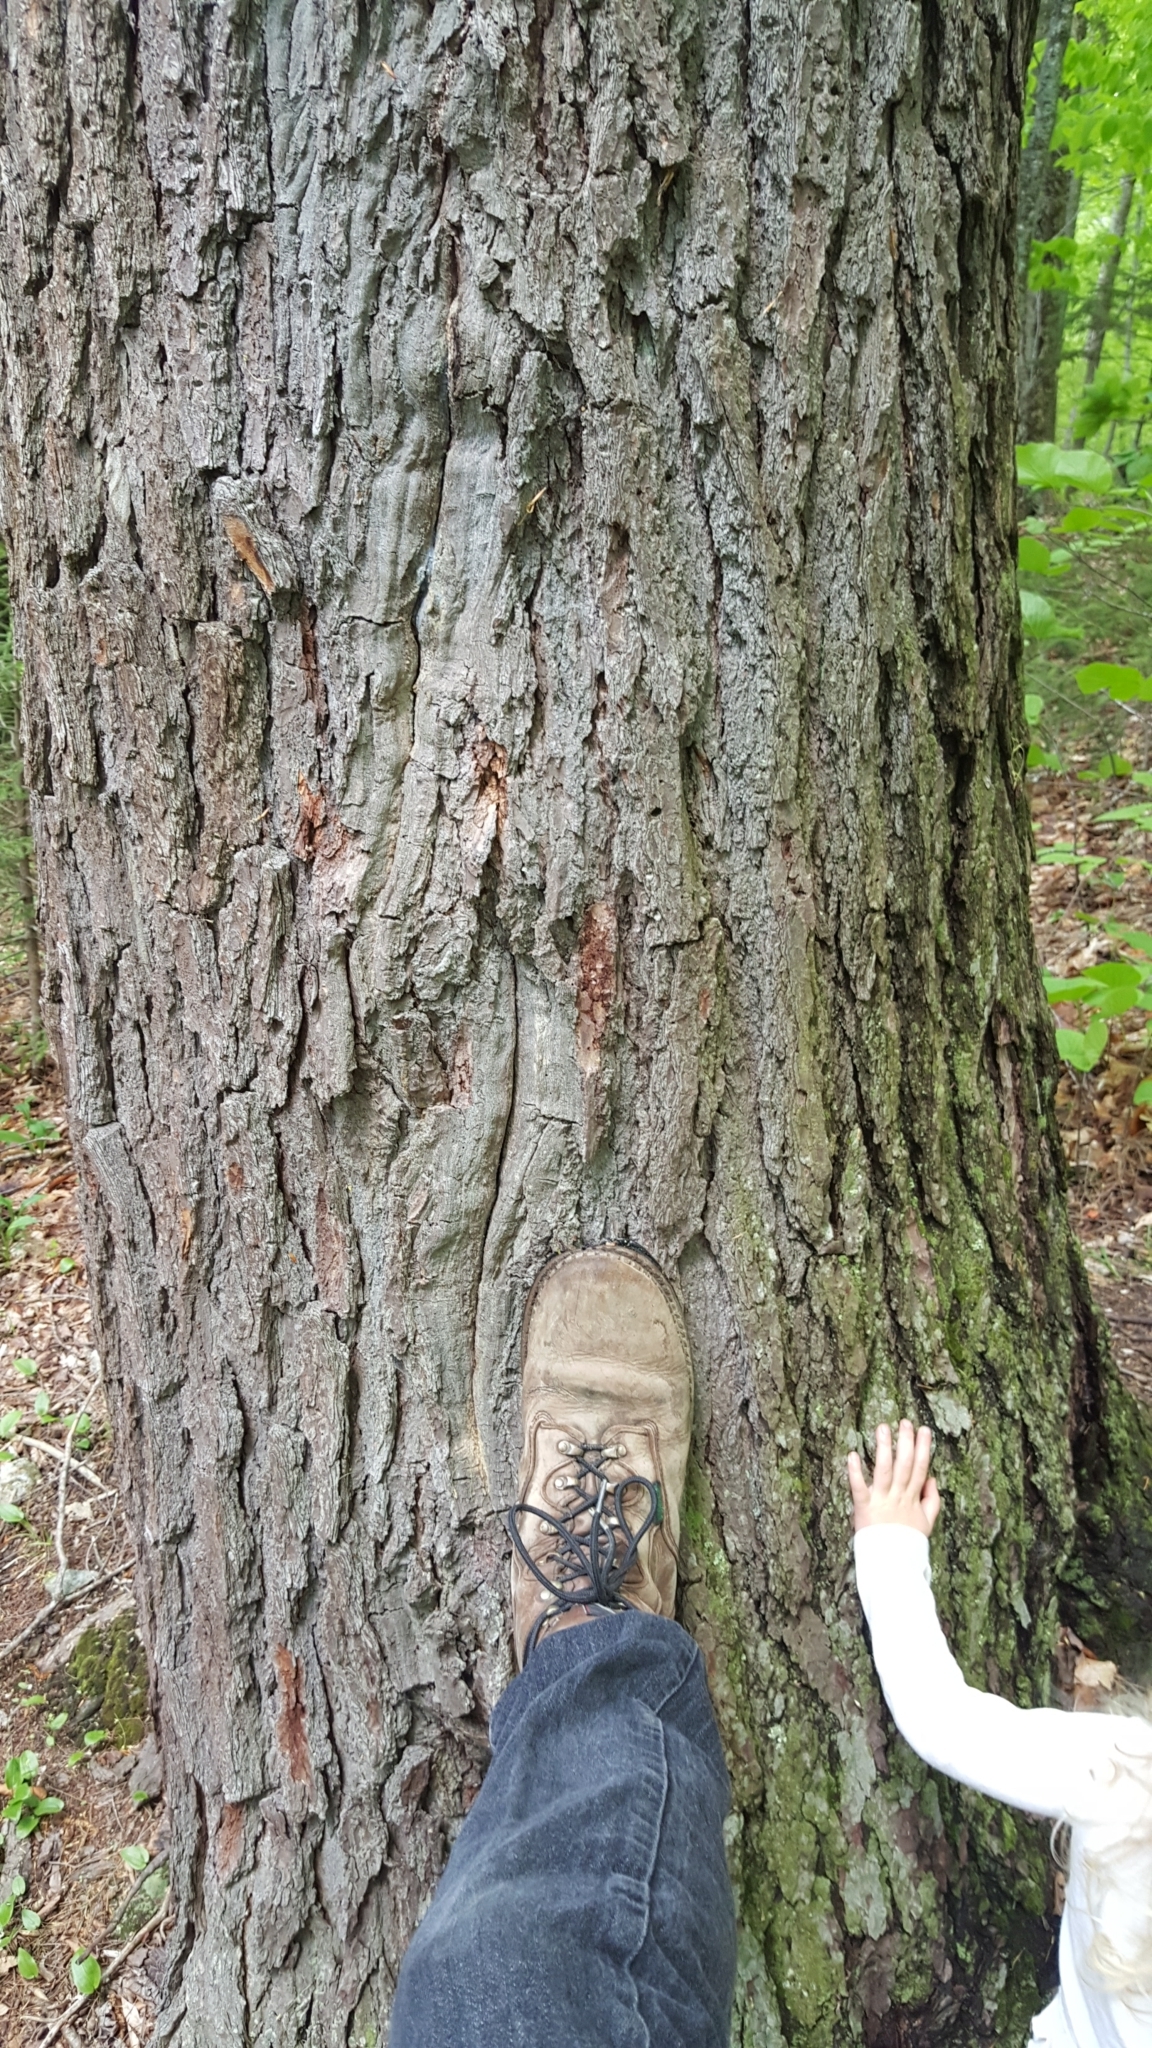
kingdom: Plantae
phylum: Tracheophyta
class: Pinopsida
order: Pinales
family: Pinaceae
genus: Tsuga
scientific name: Tsuga canadensis
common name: Eastern hemlock
